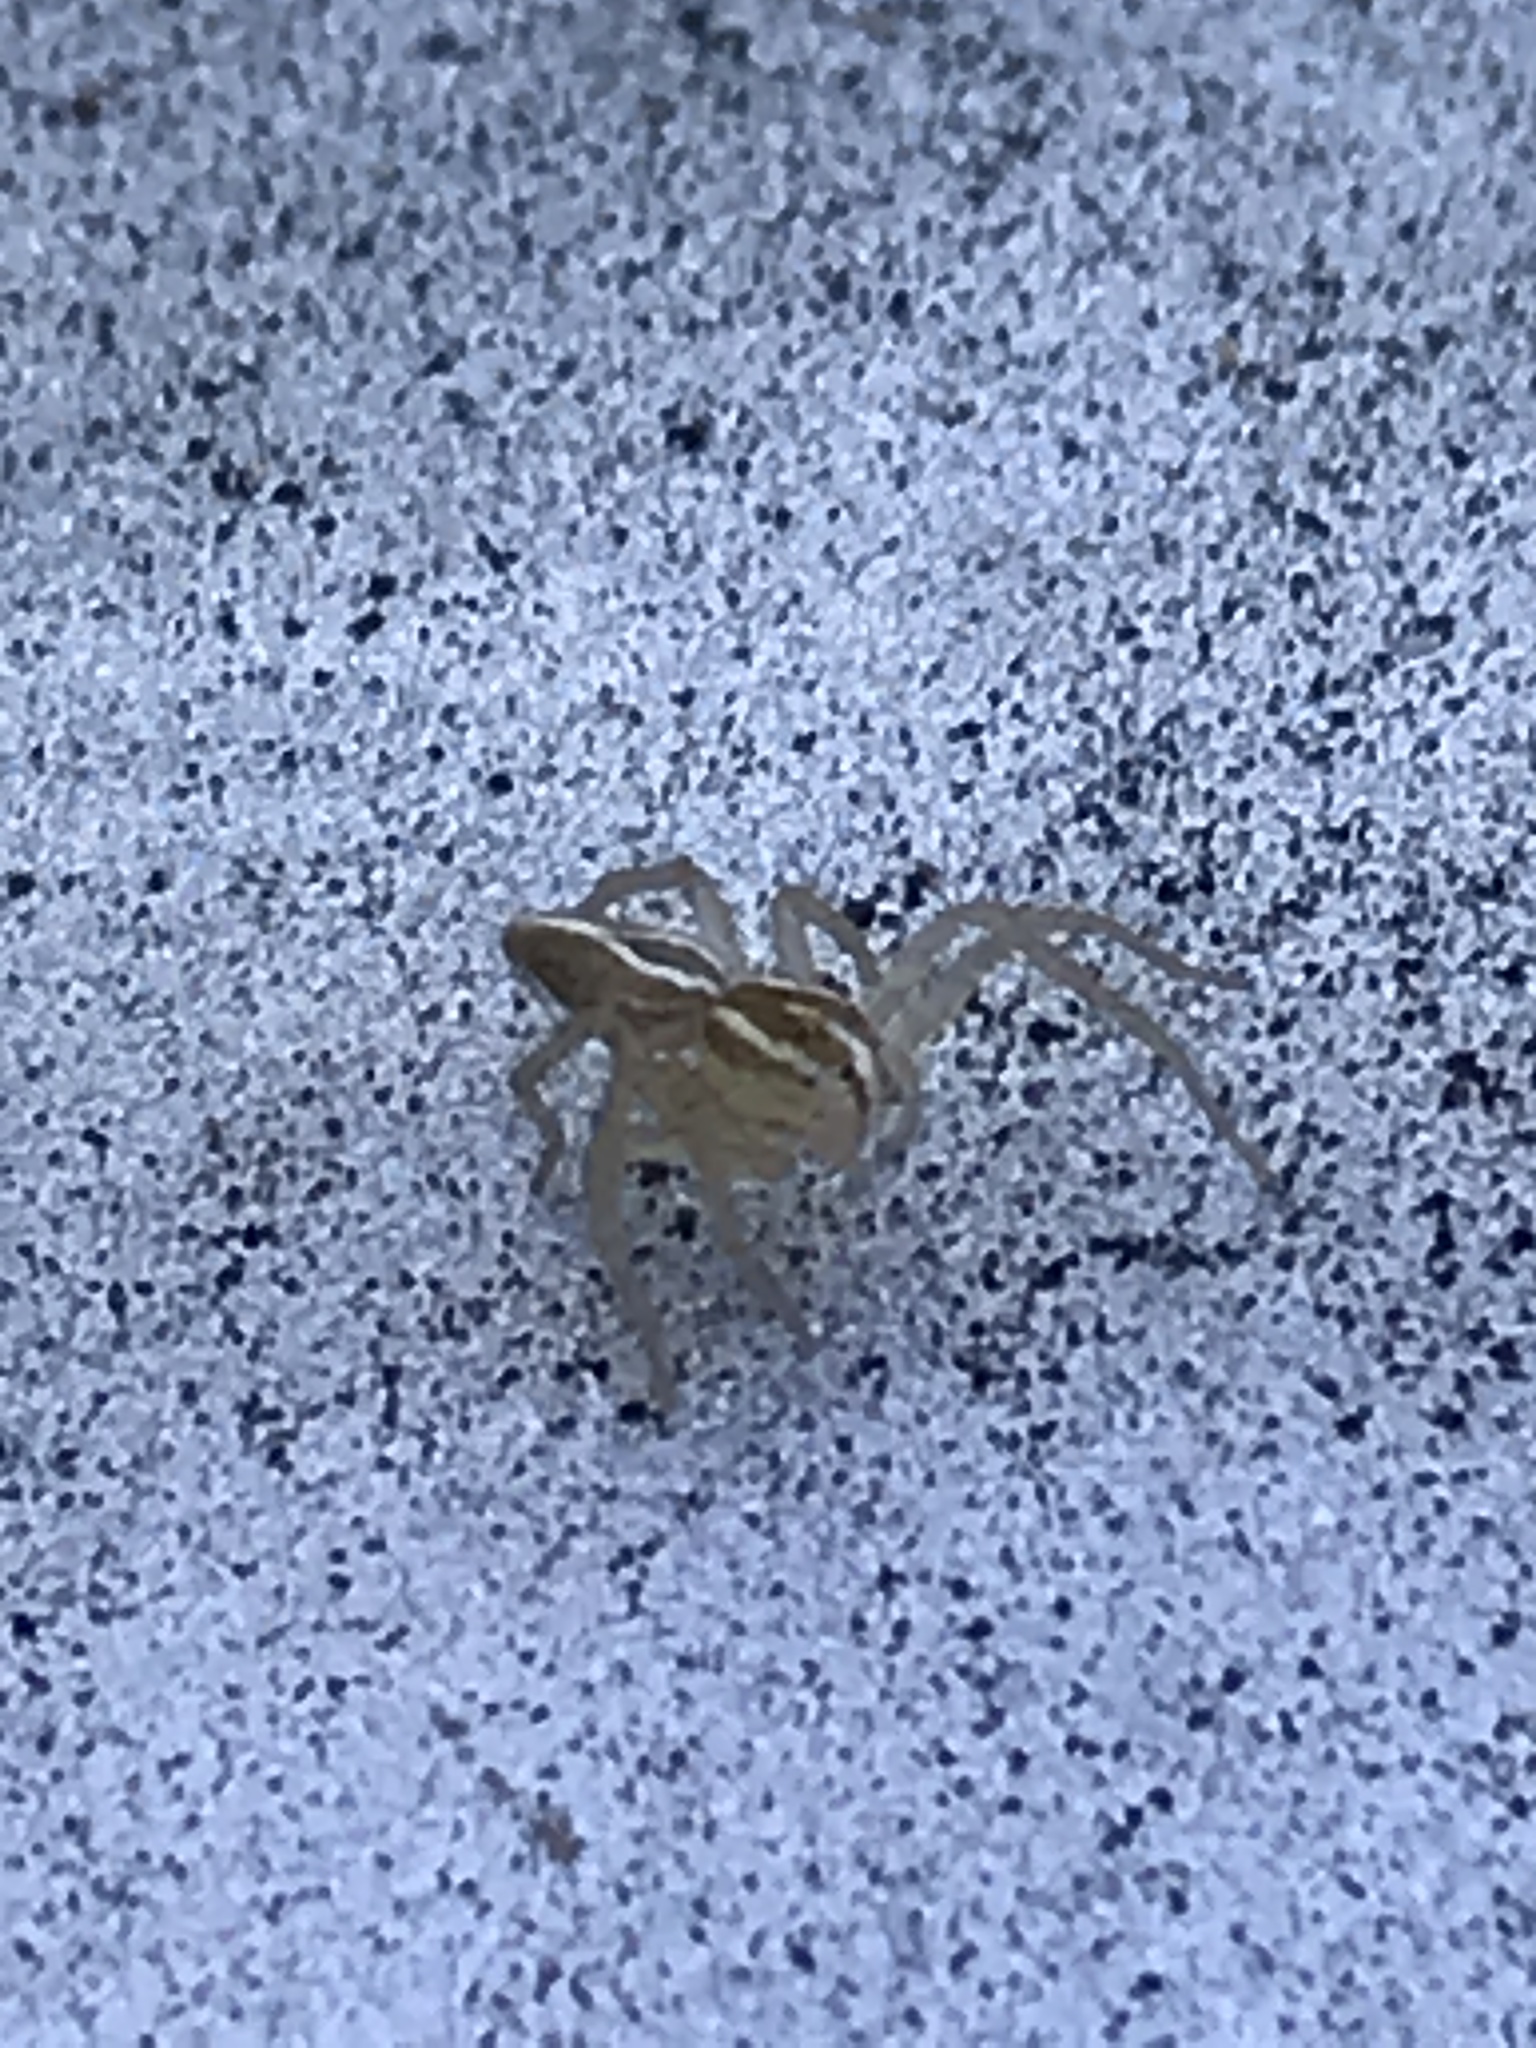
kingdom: Animalia
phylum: Arthropoda
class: Arachnida
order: Araneae
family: Oxyopidae
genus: Oxyopes
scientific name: Oxyopes salticus
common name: Lynx spiders
